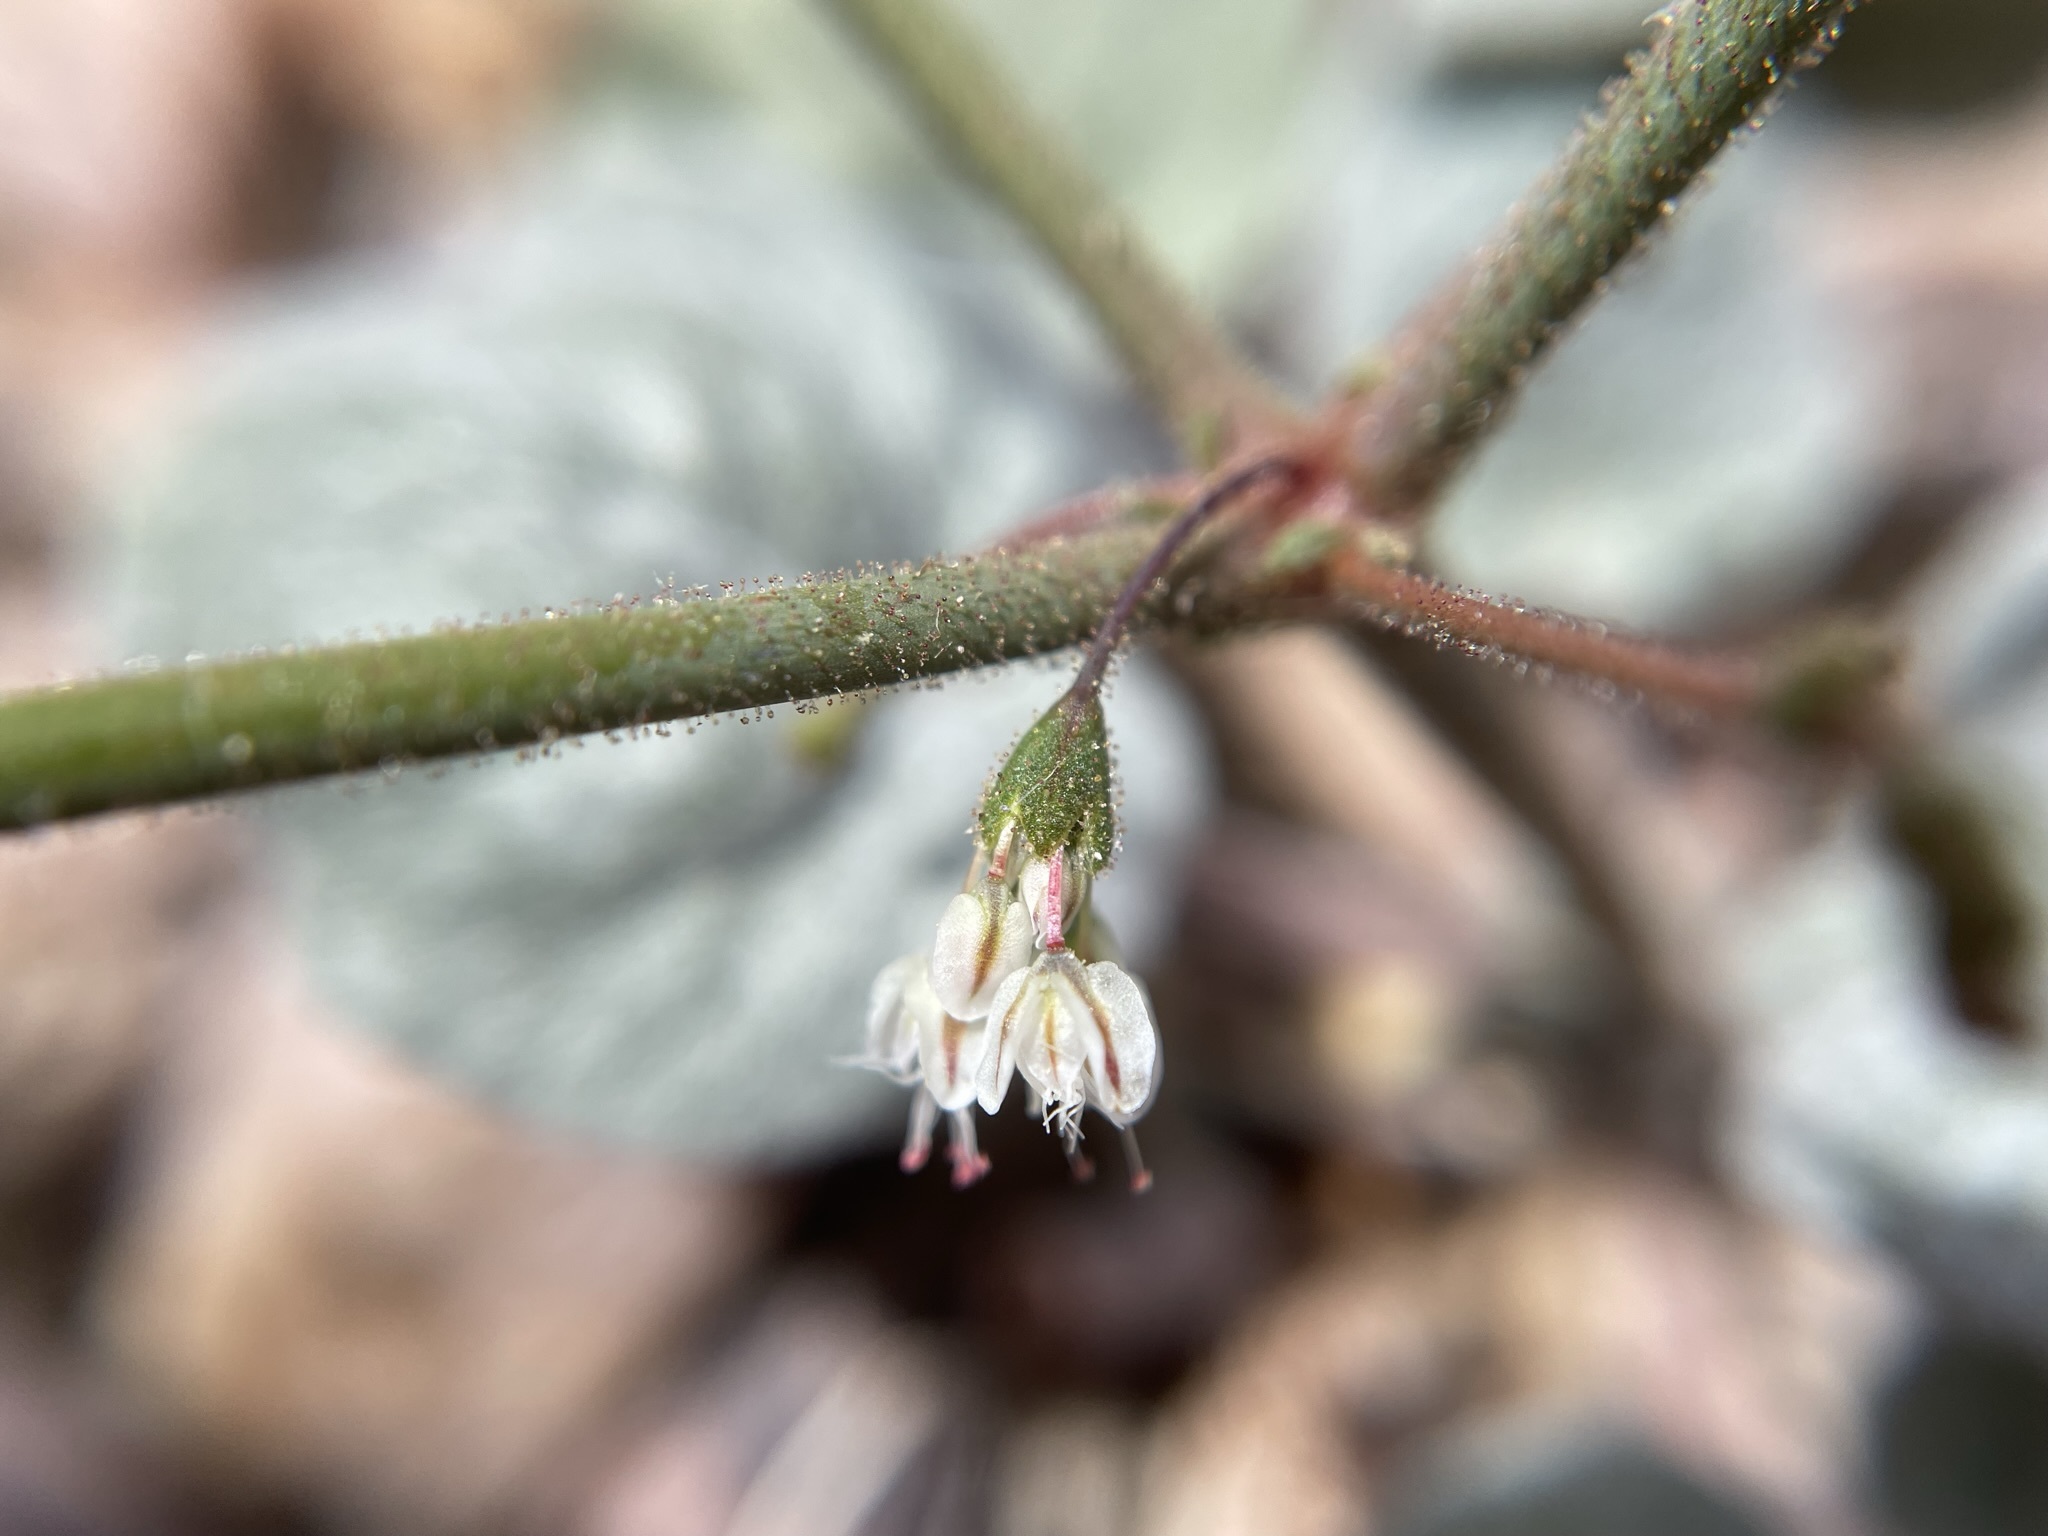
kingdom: Plantae
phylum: Tracheophyta
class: Magnoliopsida
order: Caryophyllales
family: Polygonaceae
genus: Eriogonum
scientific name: Eriogonum brachypodum
